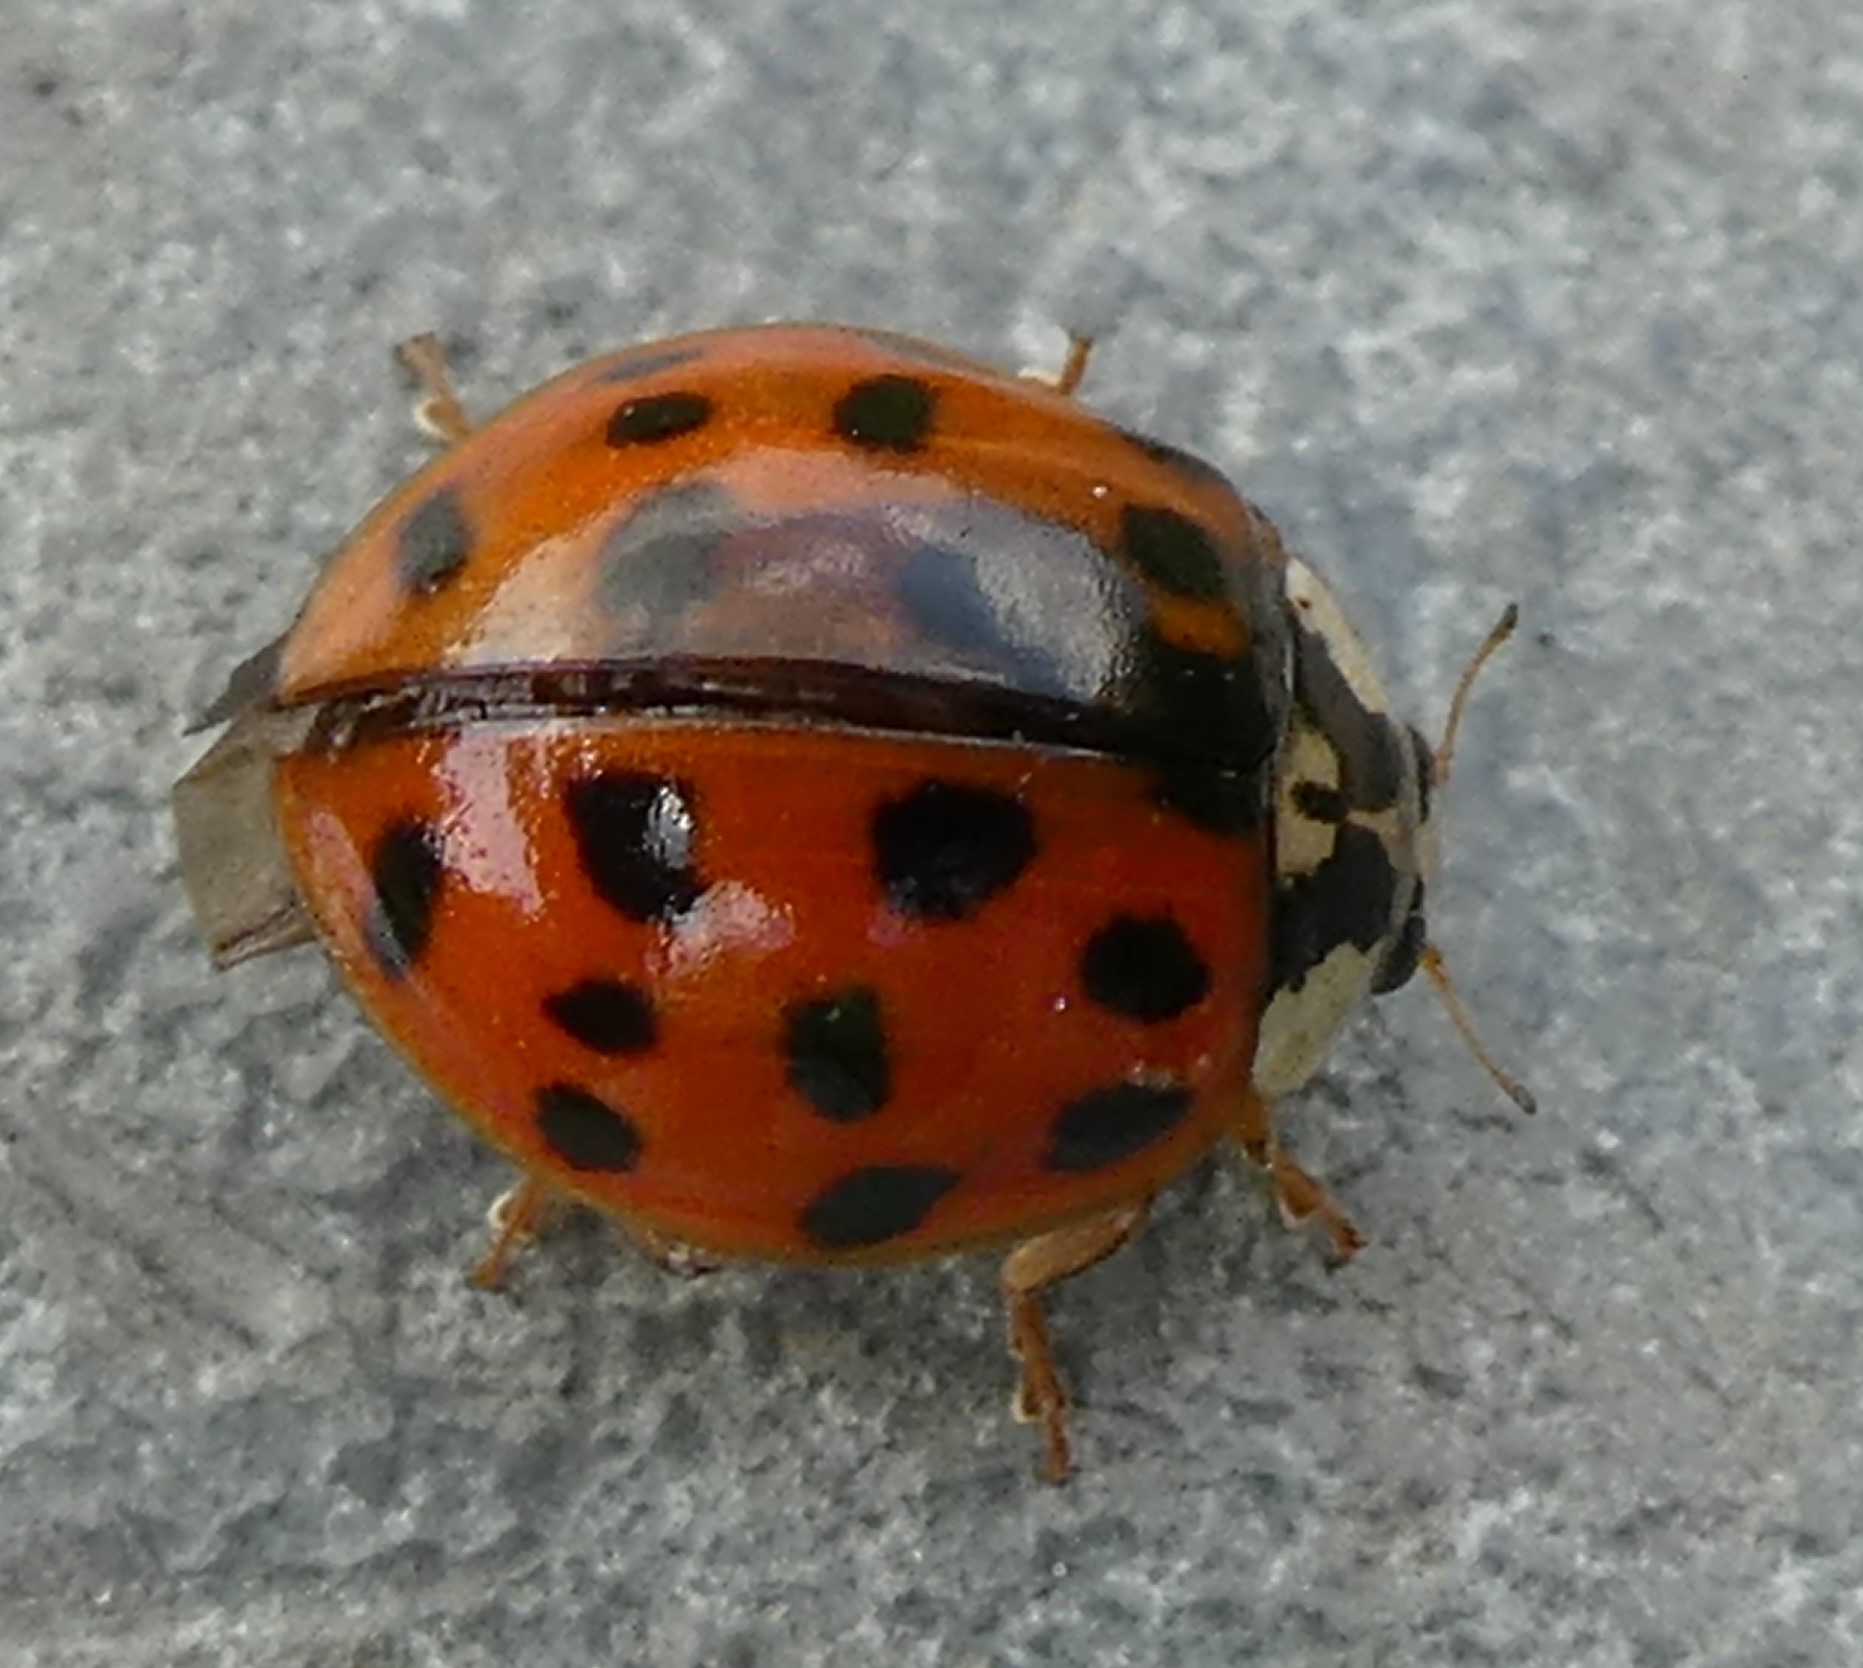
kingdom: Animalia
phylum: Arthropoda
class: Insecta
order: Coleoptera
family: Coccinellidae
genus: Harmonia
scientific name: Harmonia axyridis
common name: Harlequin ladybird
